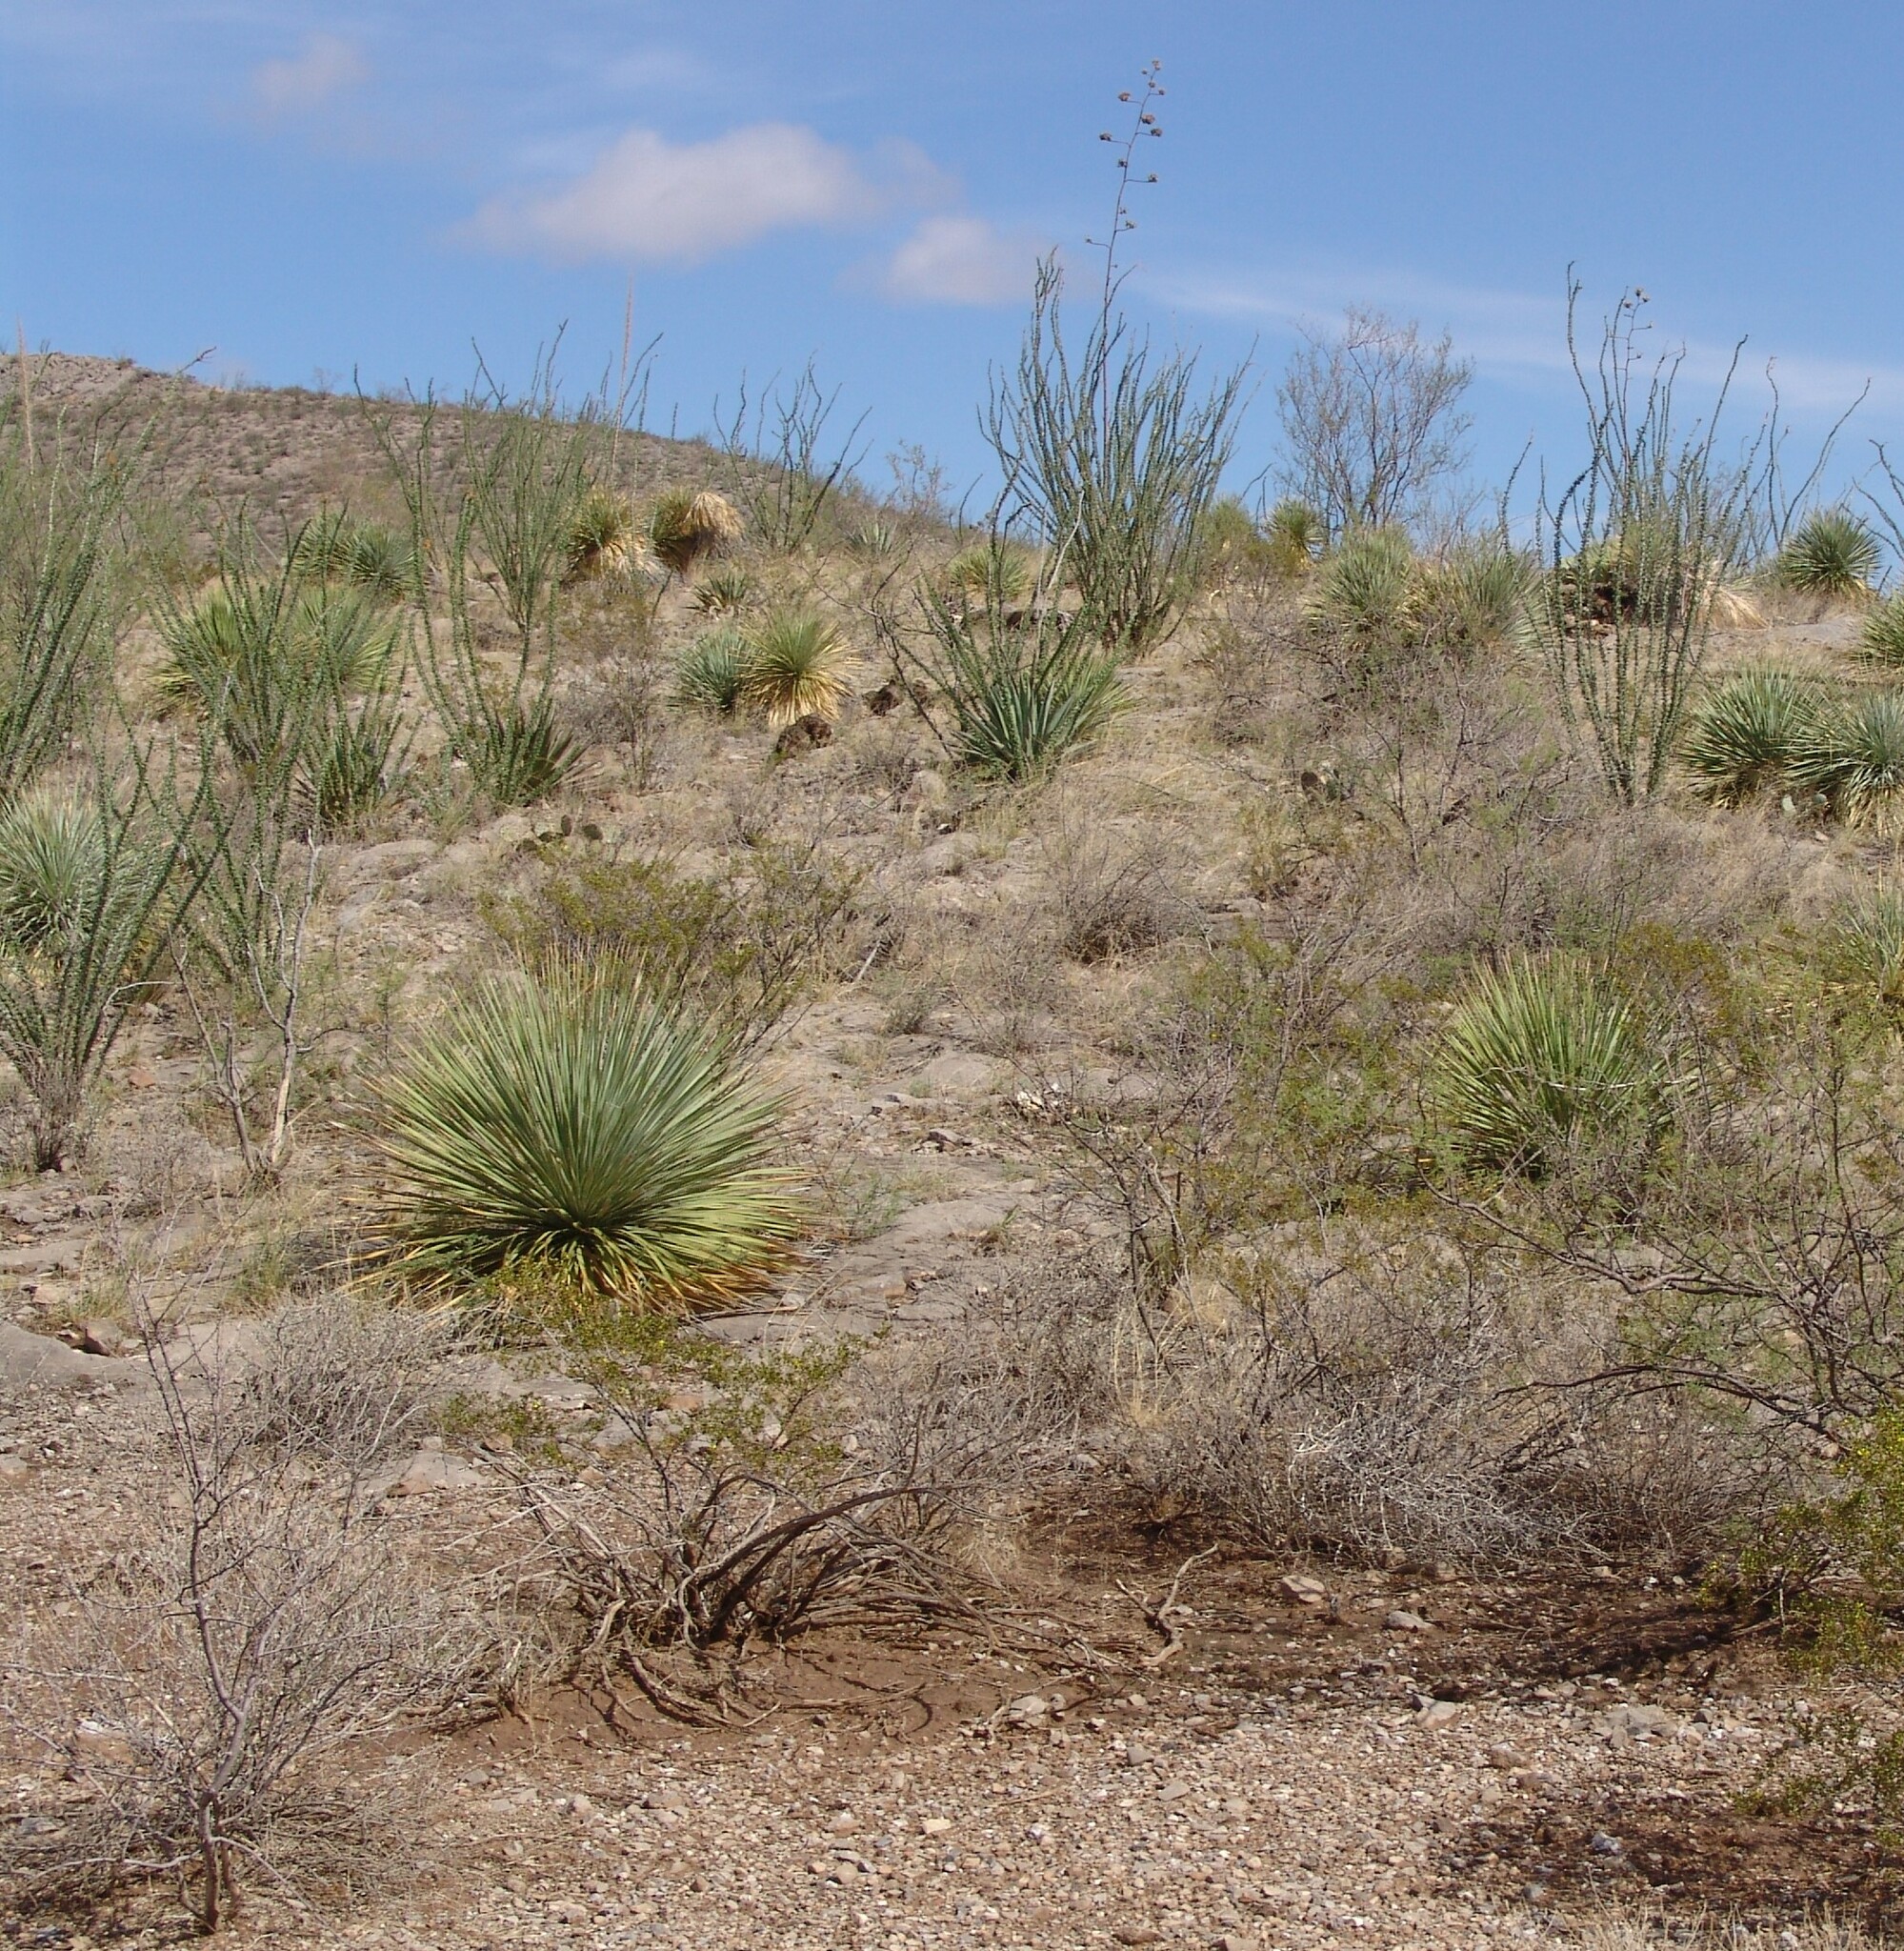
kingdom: Plantae
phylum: Tracheophyta
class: Liliopsida
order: Asparagales
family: Asparagaceae
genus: Dasylirion
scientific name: Dasylirion wheeleri
